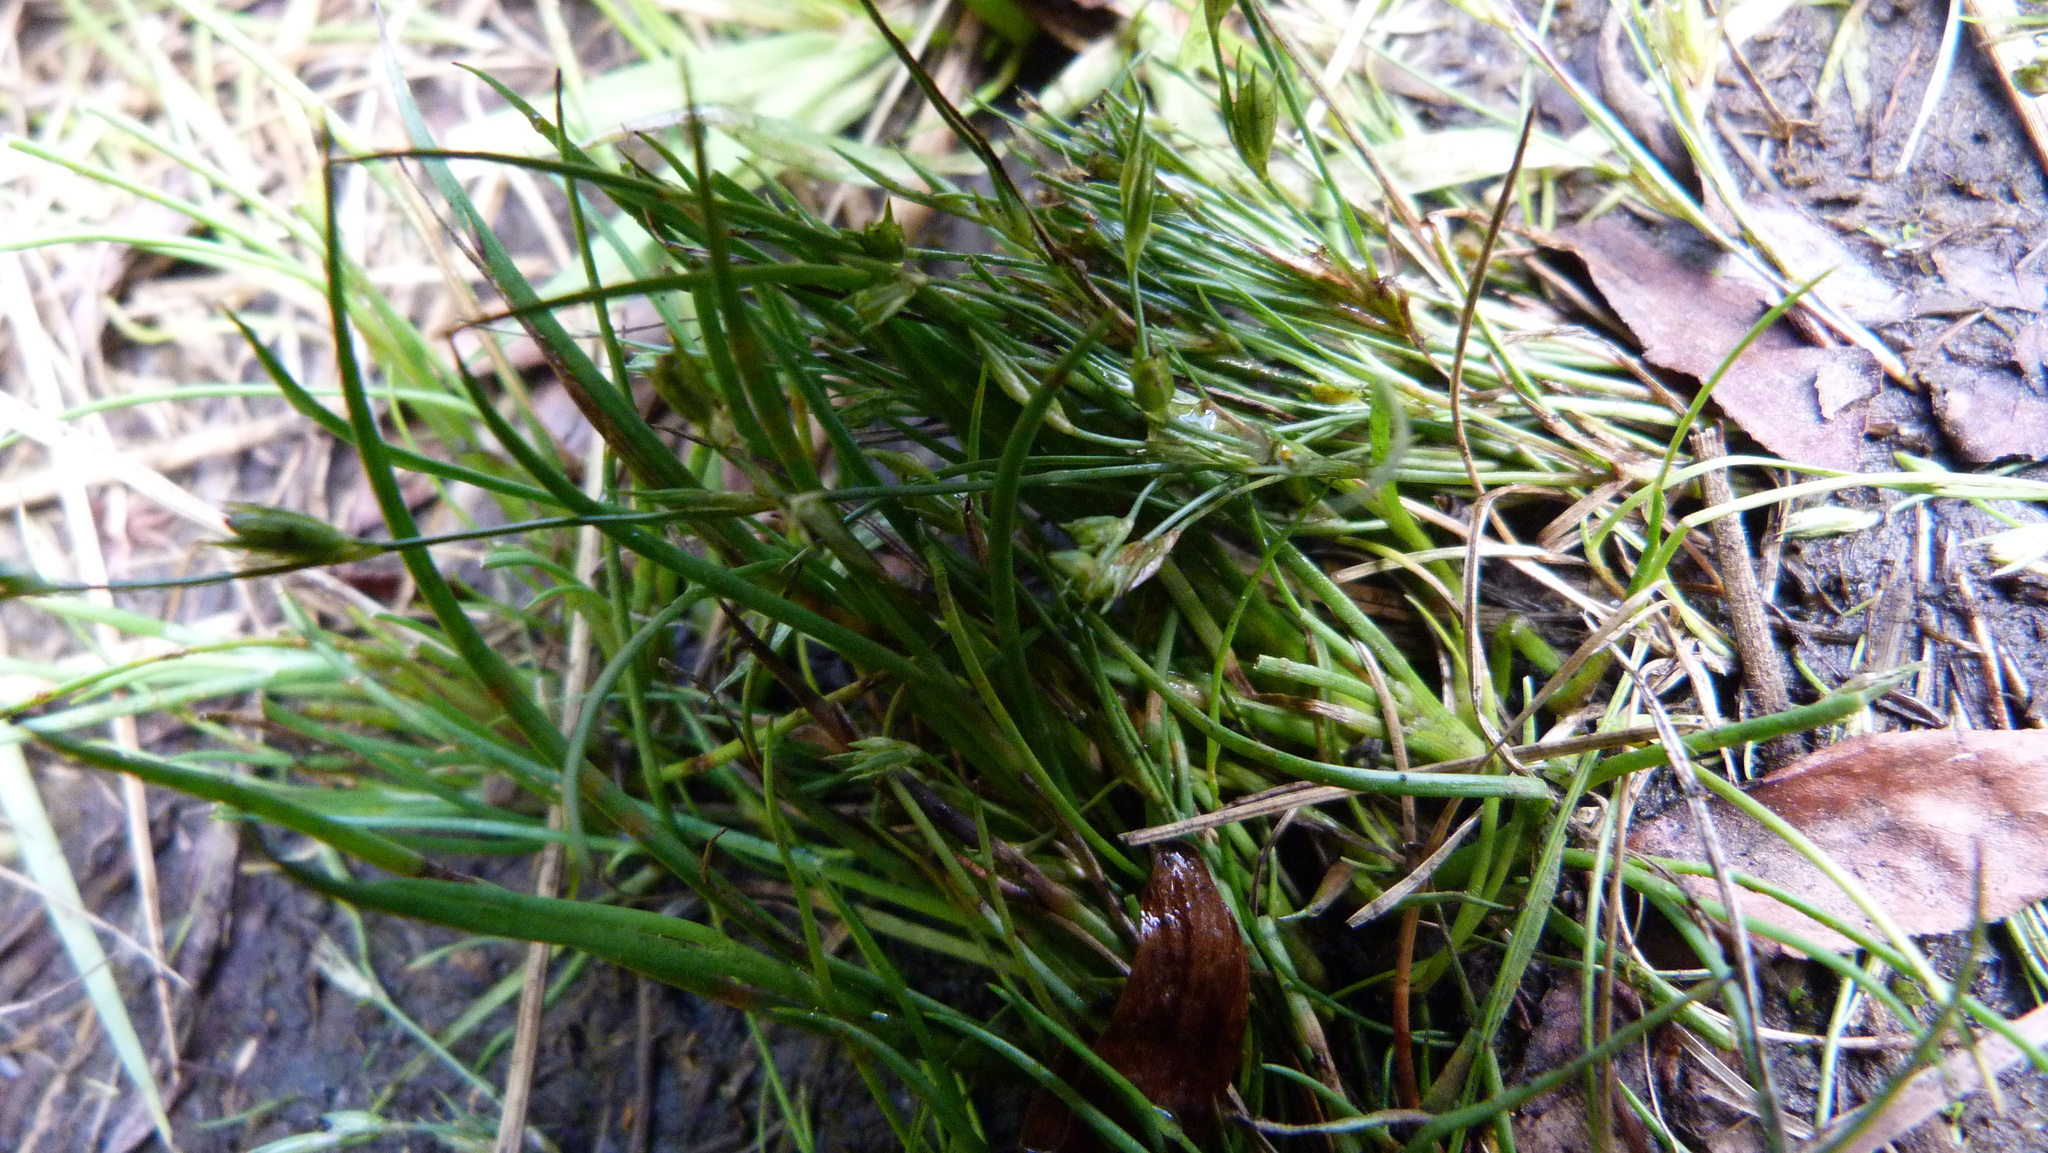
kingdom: Plantae
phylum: Tracheophyta
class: Liliopsida
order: Poales
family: Juncaceae
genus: Juncus
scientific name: Juncus bufonius
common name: Toad rush
